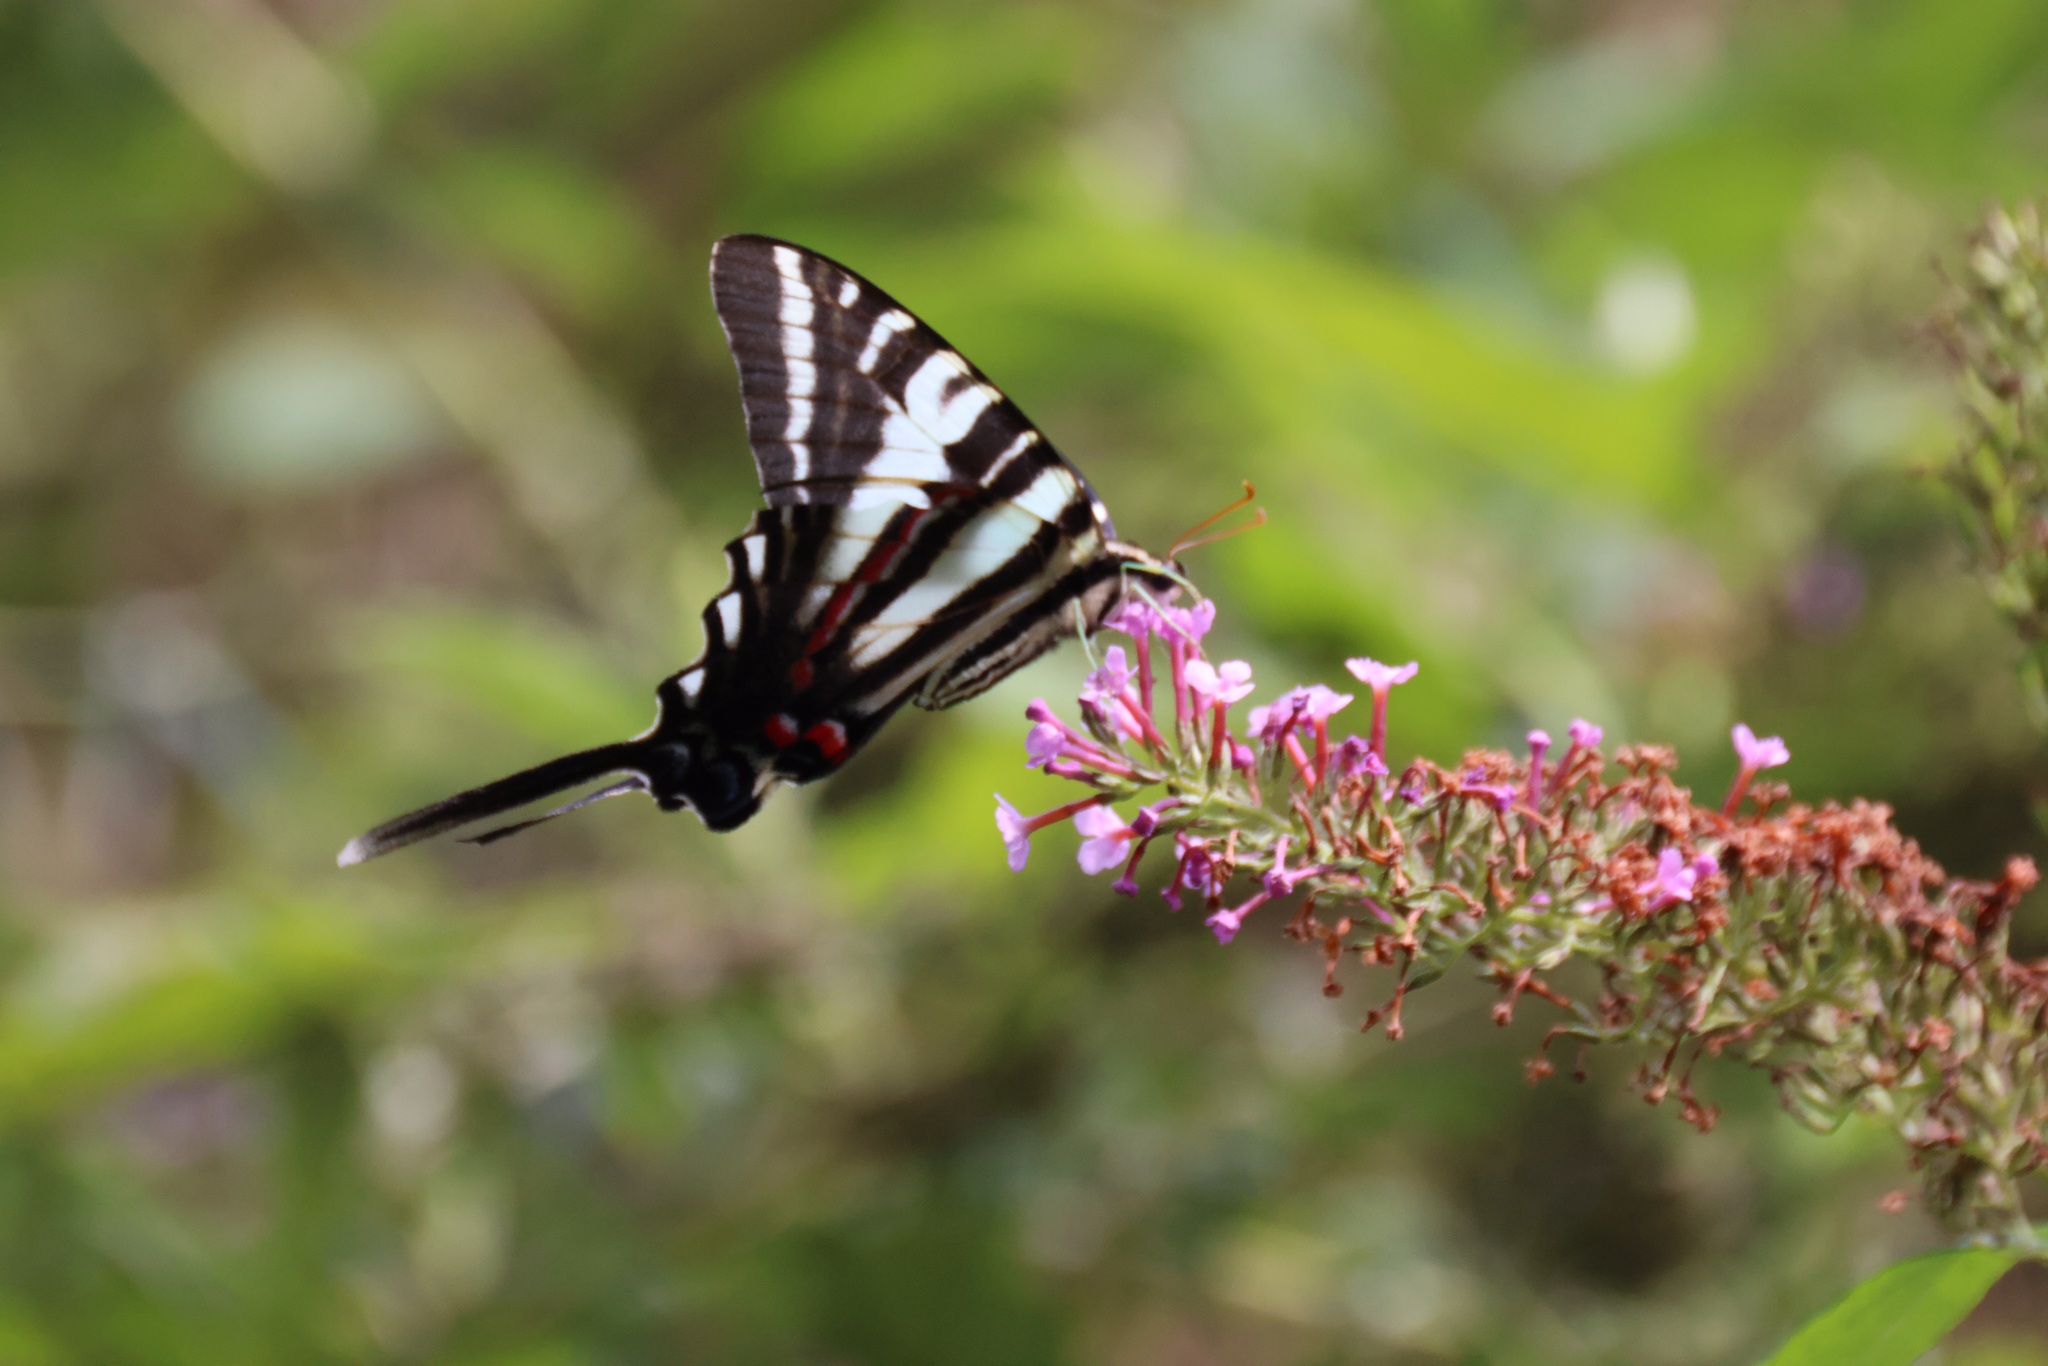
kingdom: Animalia
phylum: Arthropoda
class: Insecta
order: Lepidoptera
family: Papilionidae
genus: Protographium
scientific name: Protographium marcellus
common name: Zebra swallowtail
